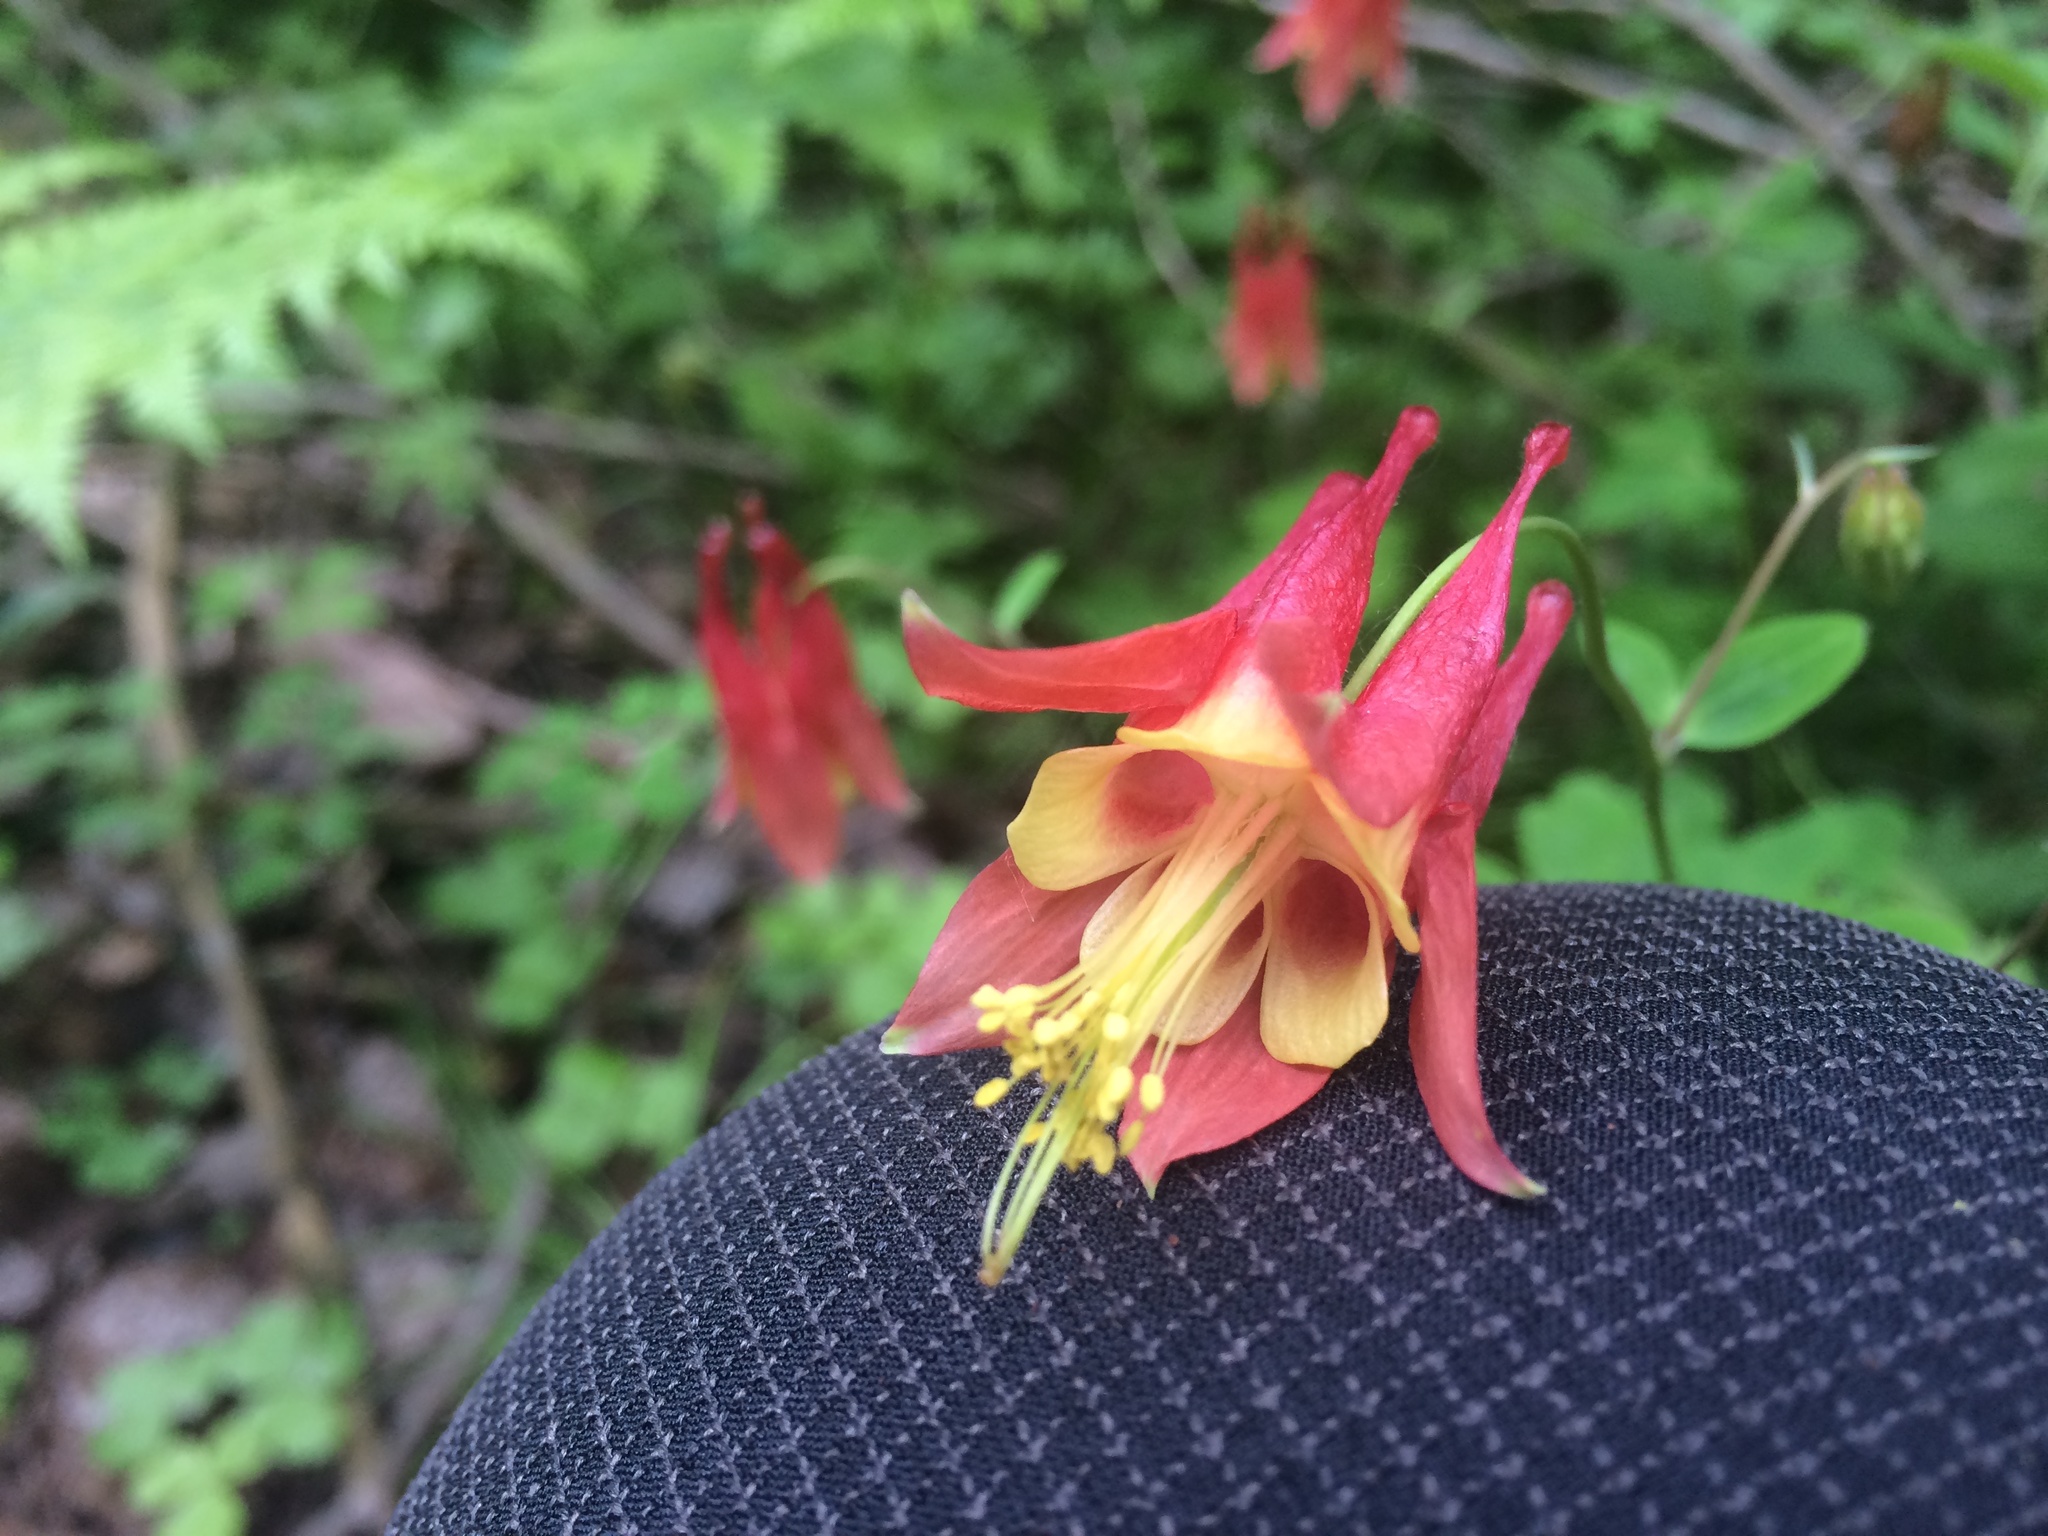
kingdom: Plantae
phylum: Tracheophyta
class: Magnoliopsida
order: Ranunculales
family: Ranunculaceae
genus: Aquilegia
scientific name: Aquilegia canadensis
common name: American columbine
